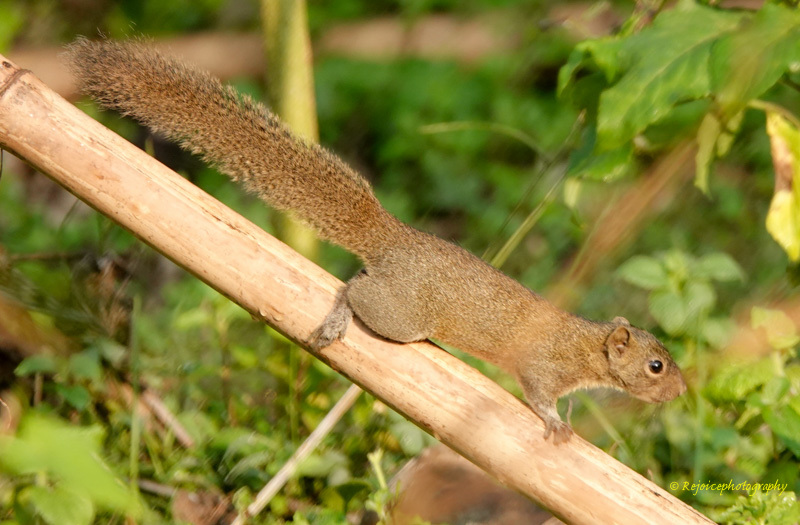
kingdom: Animalia
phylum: Chordata
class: Mammalia
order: Rodentia
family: Sciuridae
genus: Callosciurus
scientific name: Callosciurus pygerythrus
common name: Irrawaddy squirrel
